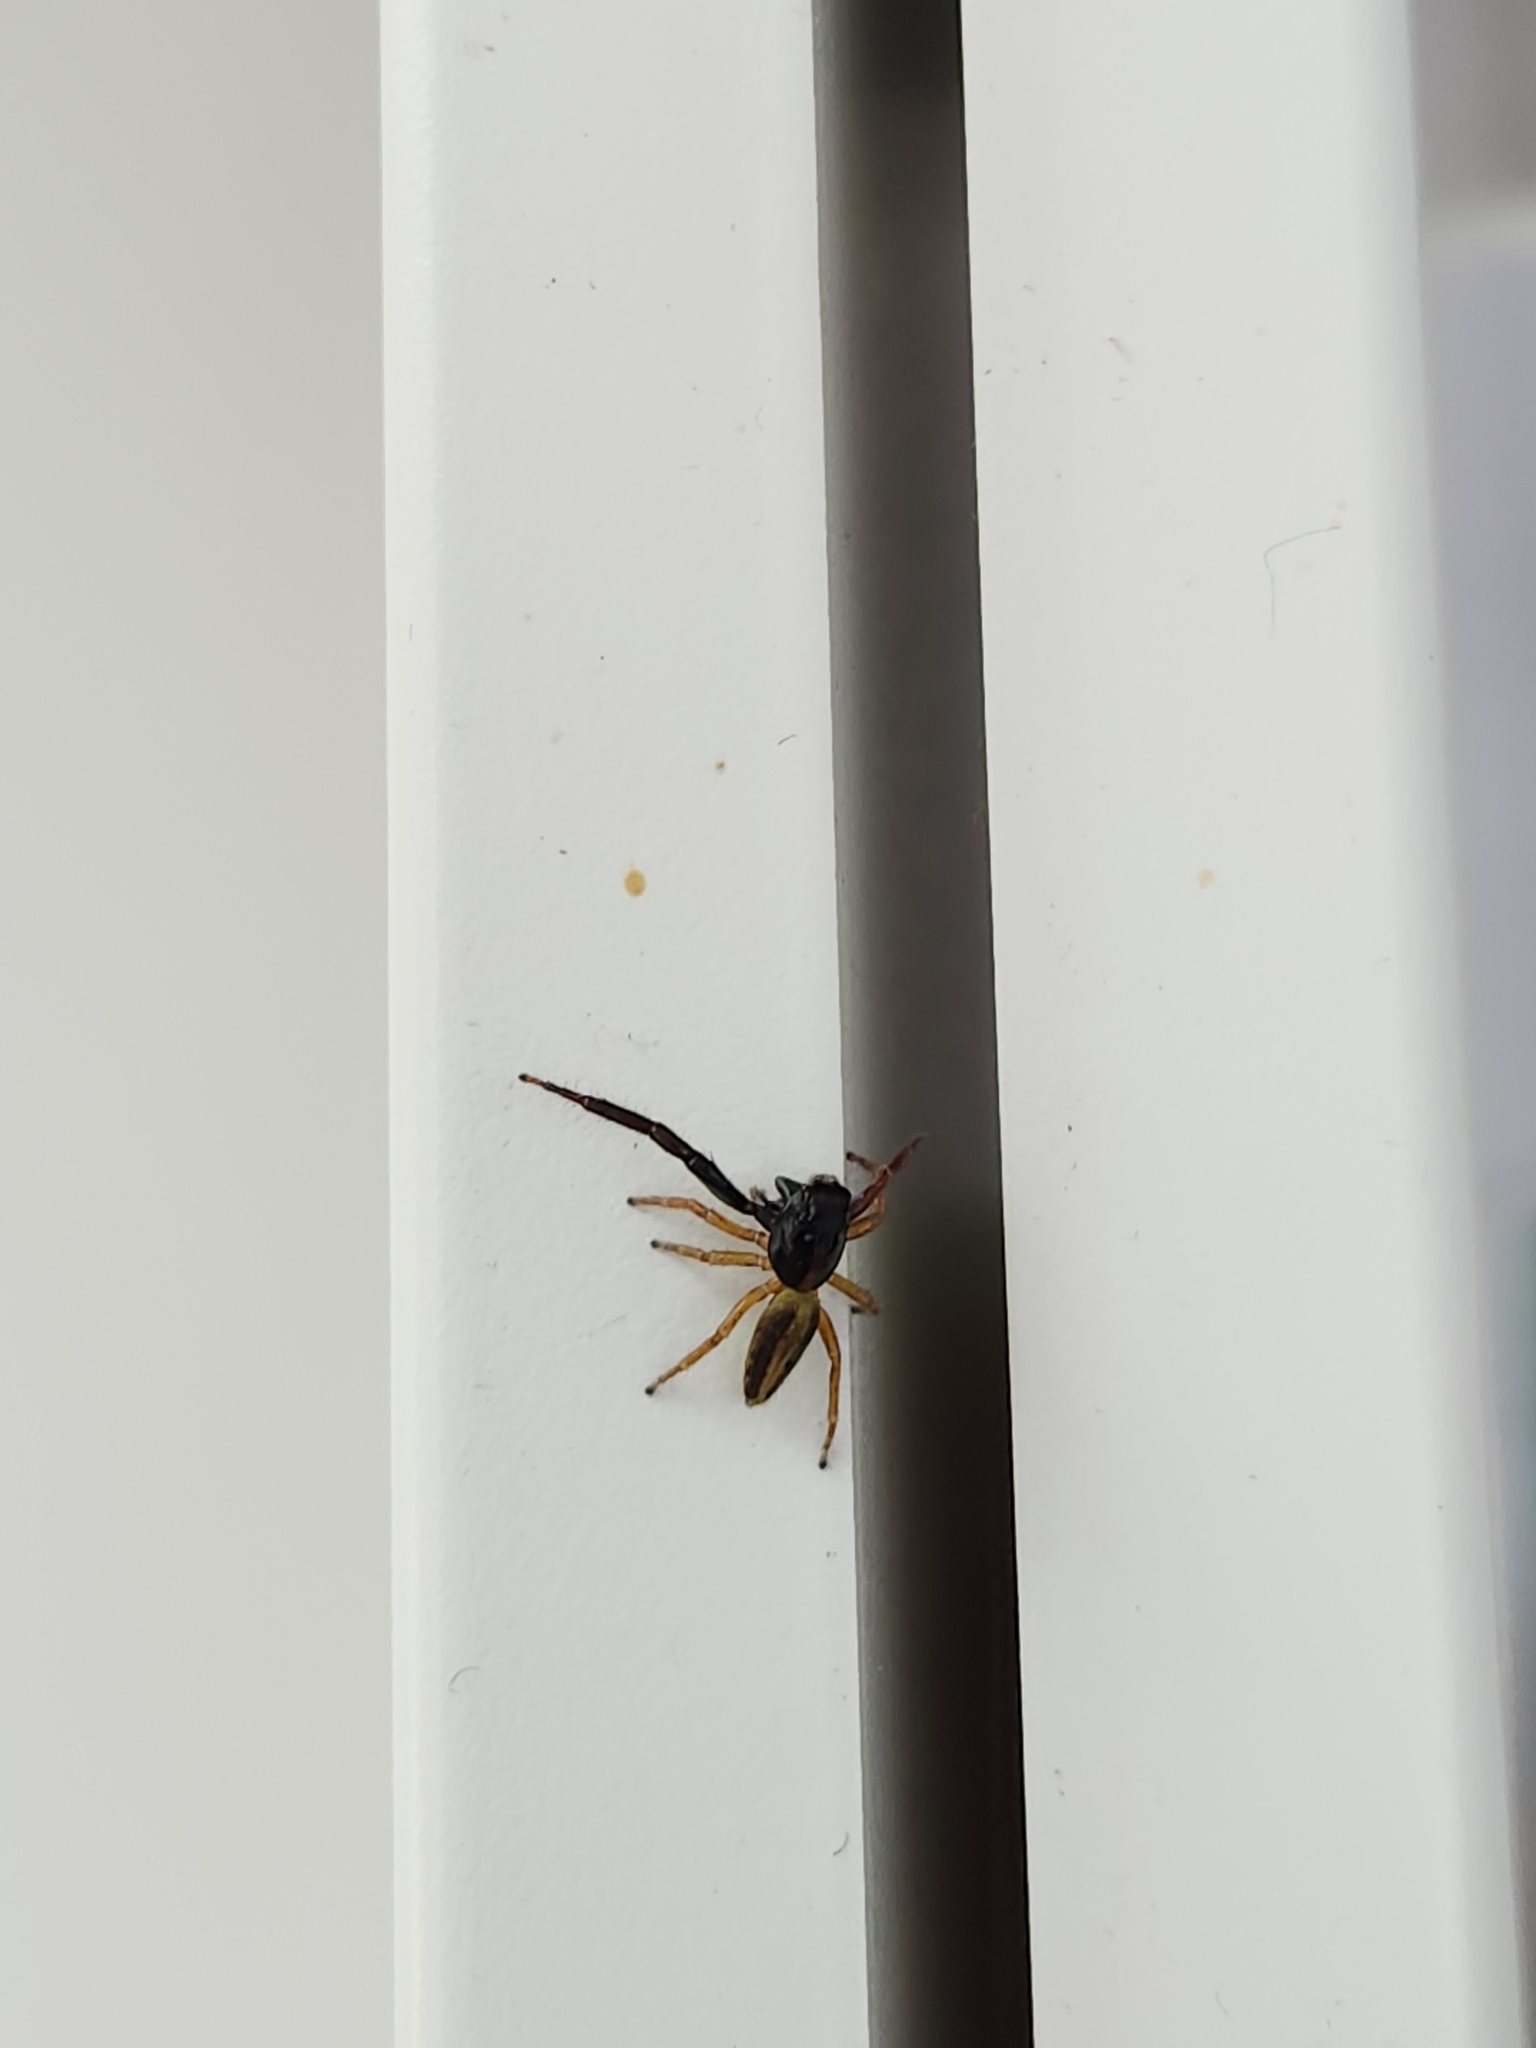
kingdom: Animalia
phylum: Arthropoda
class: Arachnida
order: Araneae
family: Salticidae
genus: Trite
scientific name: Trite planiceps
